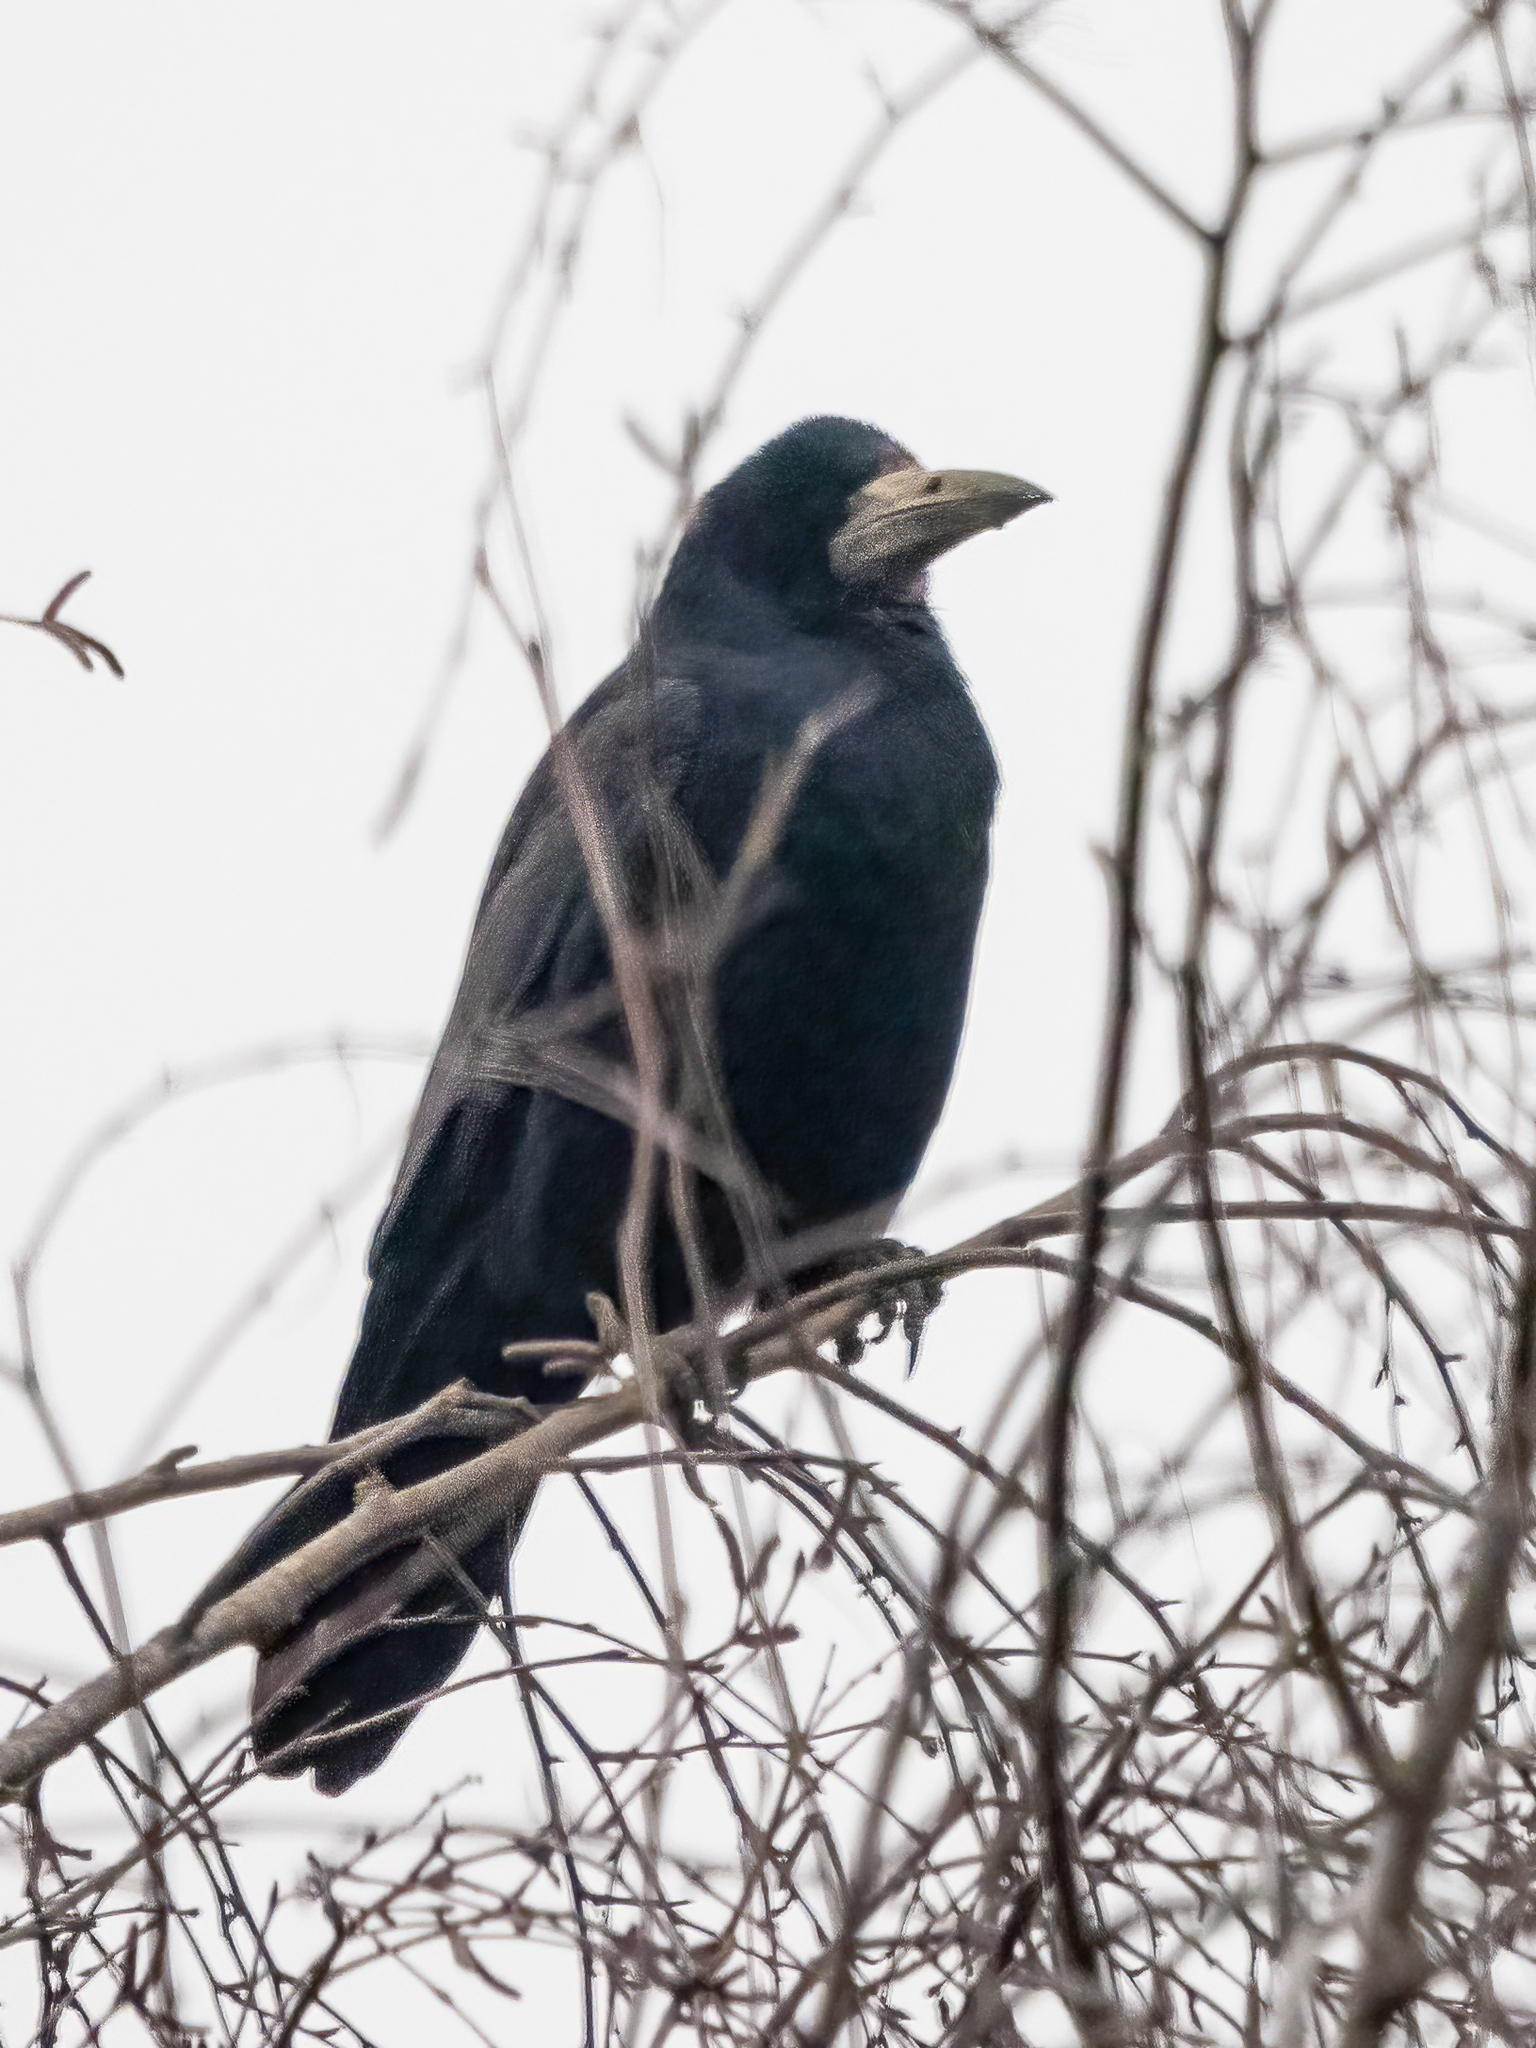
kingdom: Animalia
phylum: Chordata
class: Aves
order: Passeriformes
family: Corvidae
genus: Corvus
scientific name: Corvus frugilegus
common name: Rook
